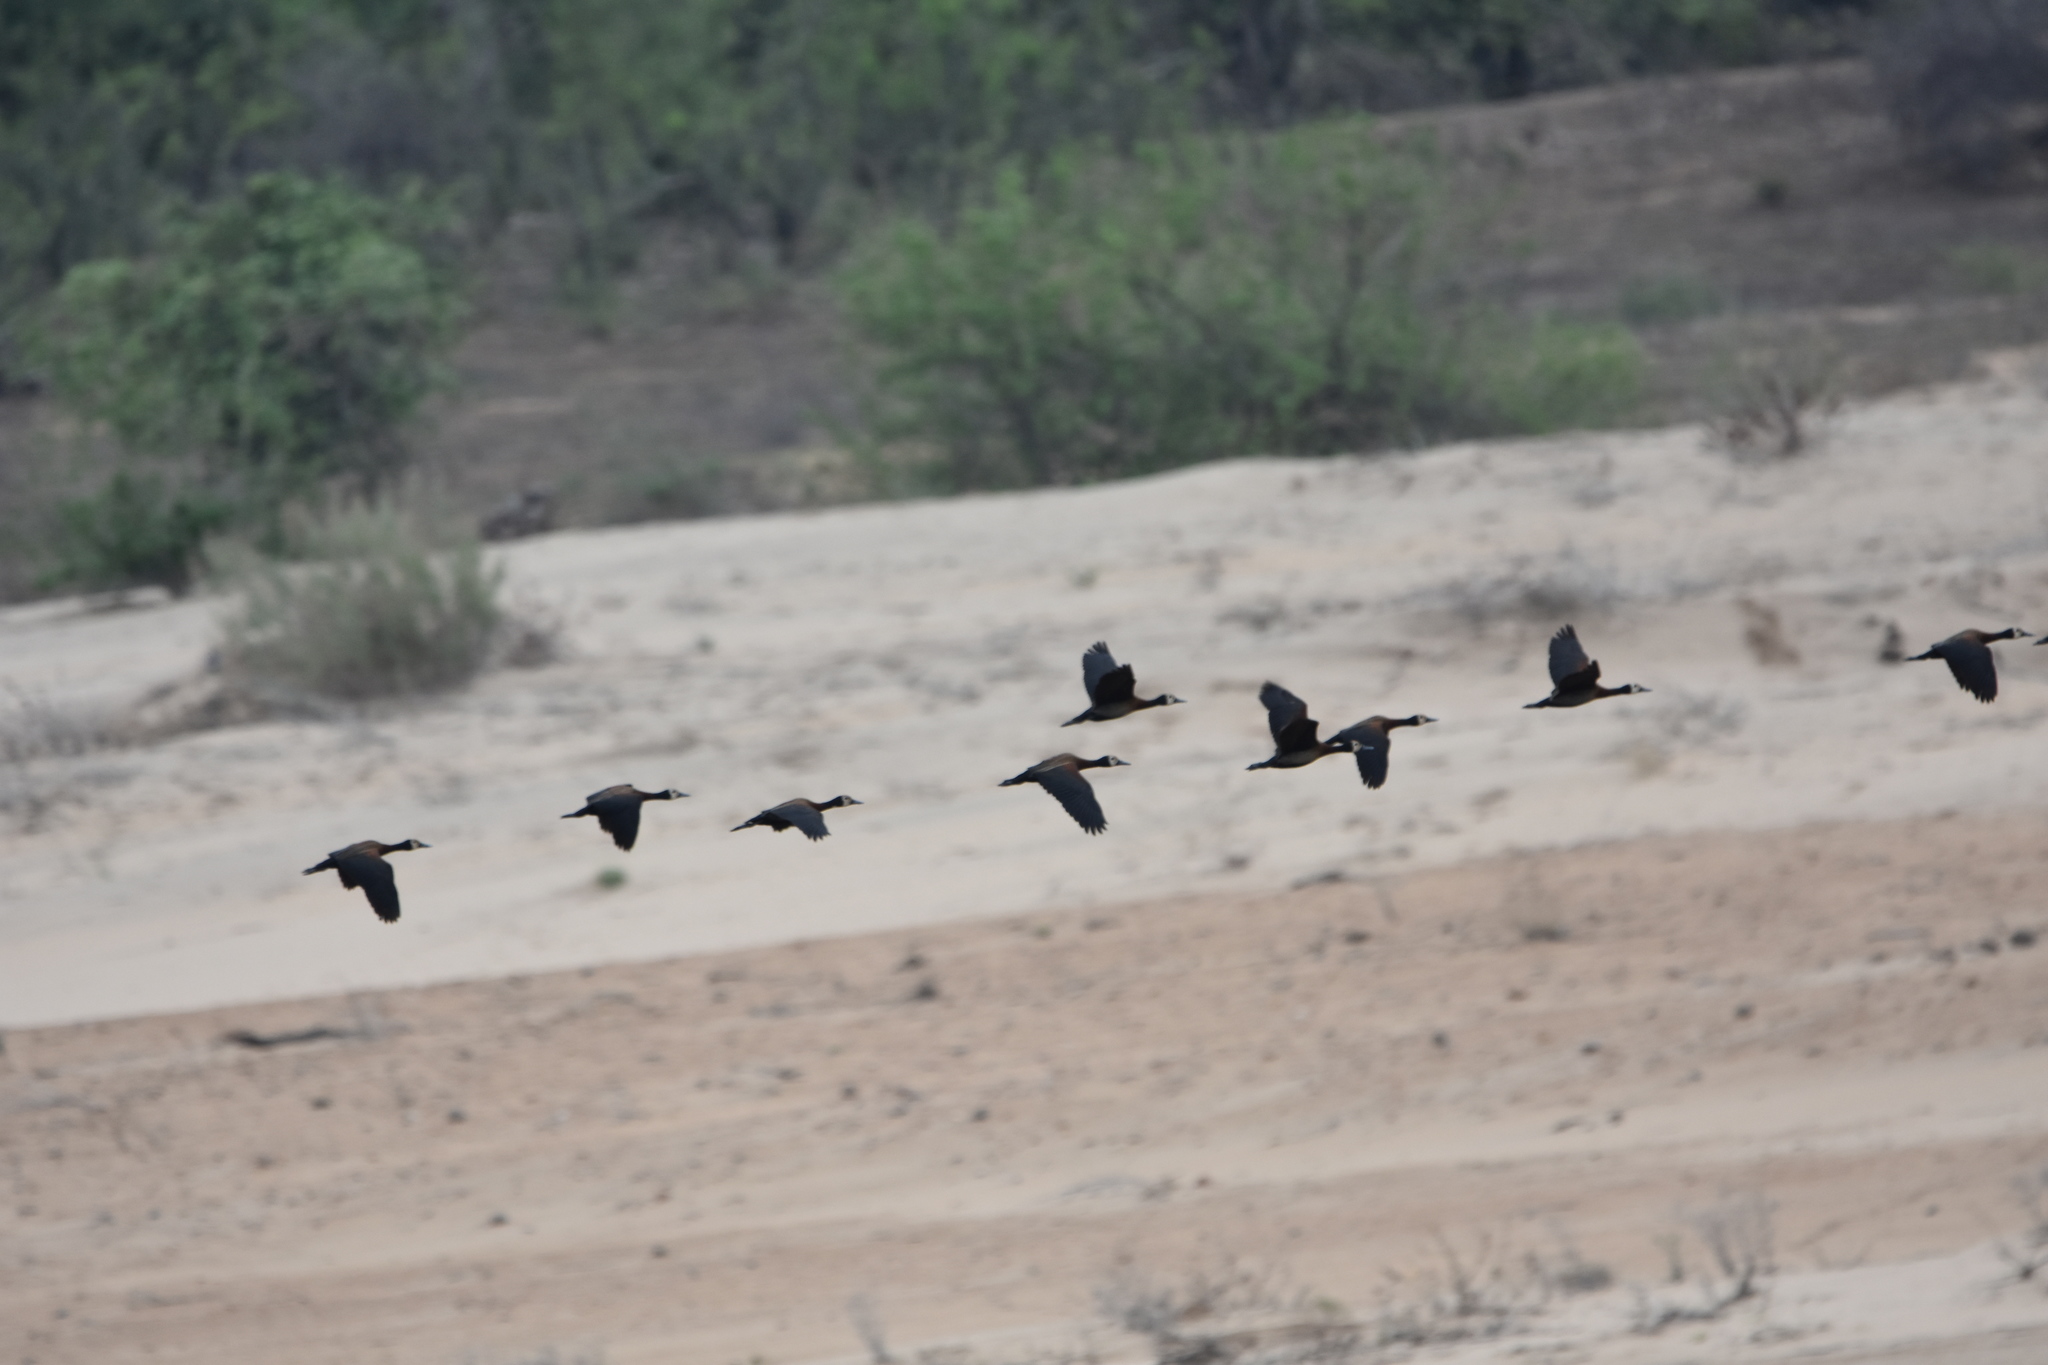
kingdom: Animalia
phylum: Chordata
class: Aves
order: Anseriformes
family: Anatidae
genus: Dendrocygna
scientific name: Dendrocygna viduata
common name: White-faced whistling duck
